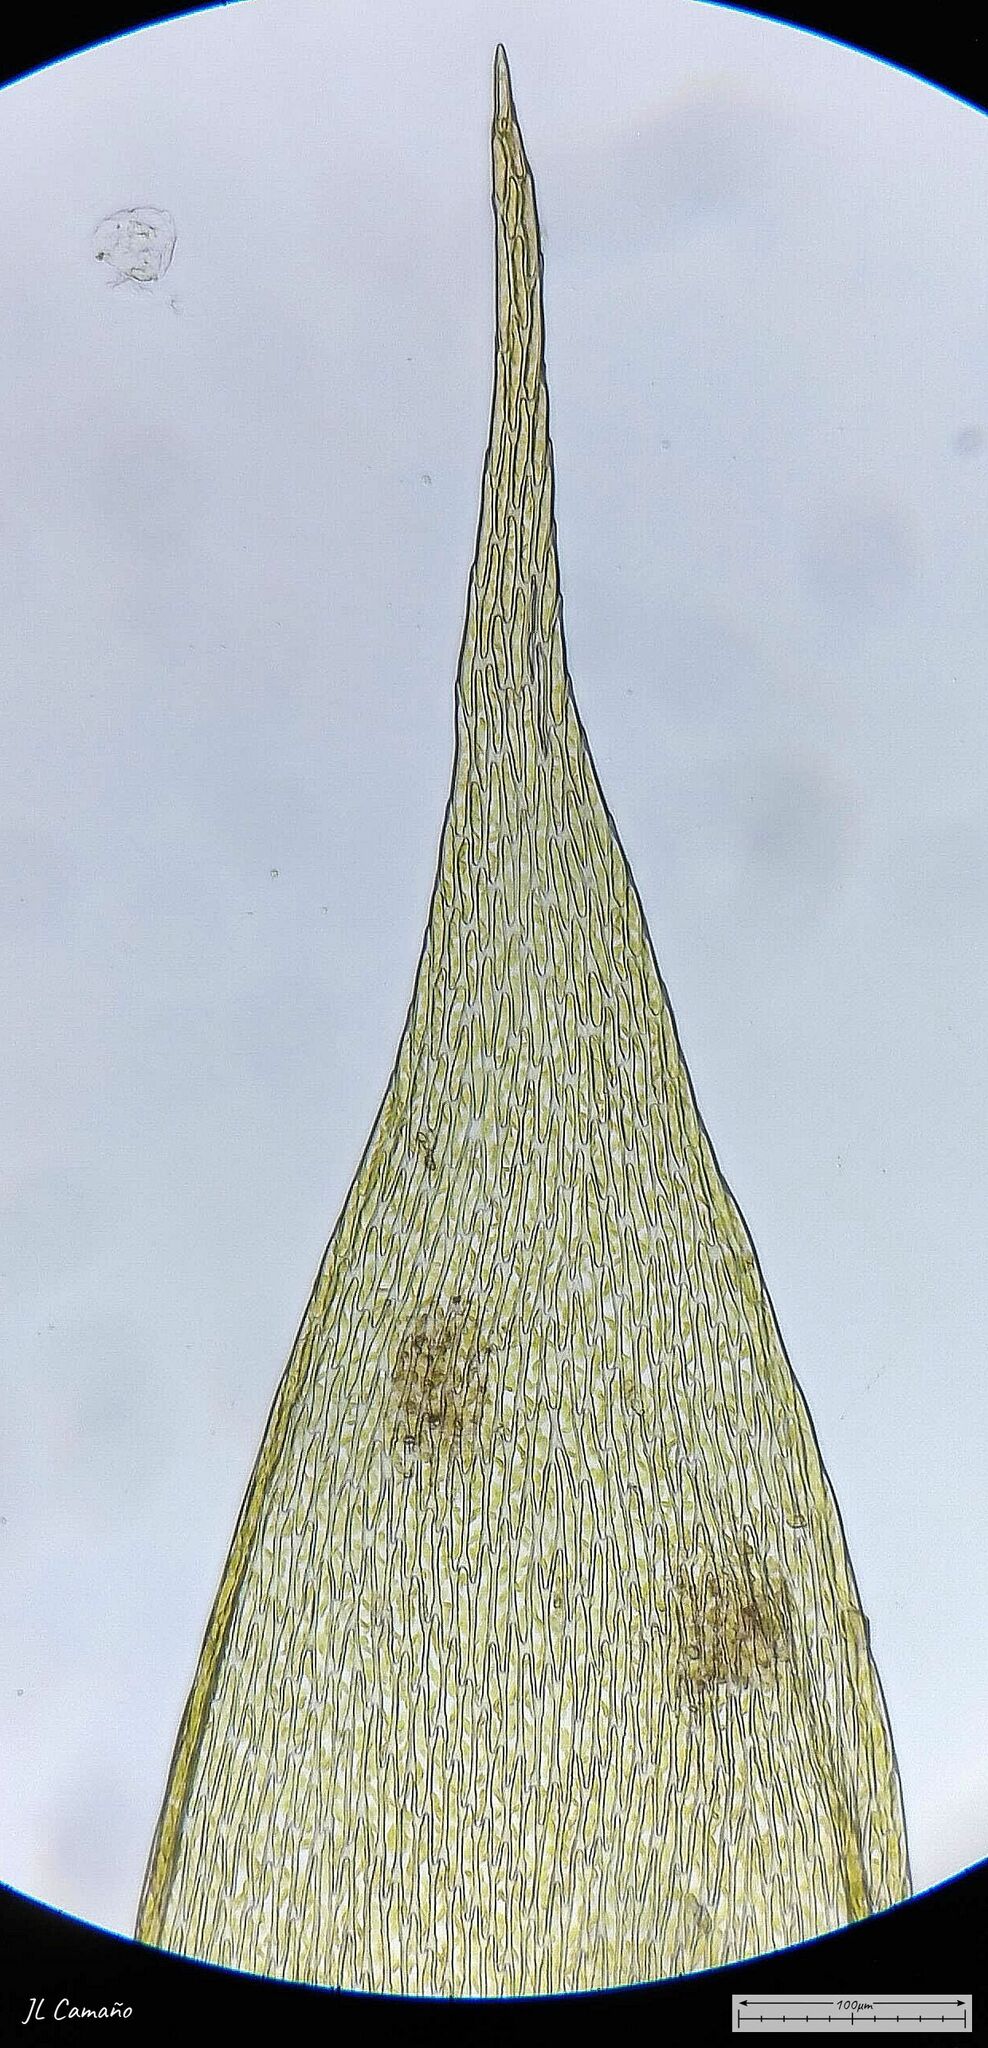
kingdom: Plantae
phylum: Bryophyta
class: Bryopsida
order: Hypnales
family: Sematophyllaceae
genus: Sematophyllum
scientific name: Sematophyllum substrumulosum
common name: Bark signal-moss
